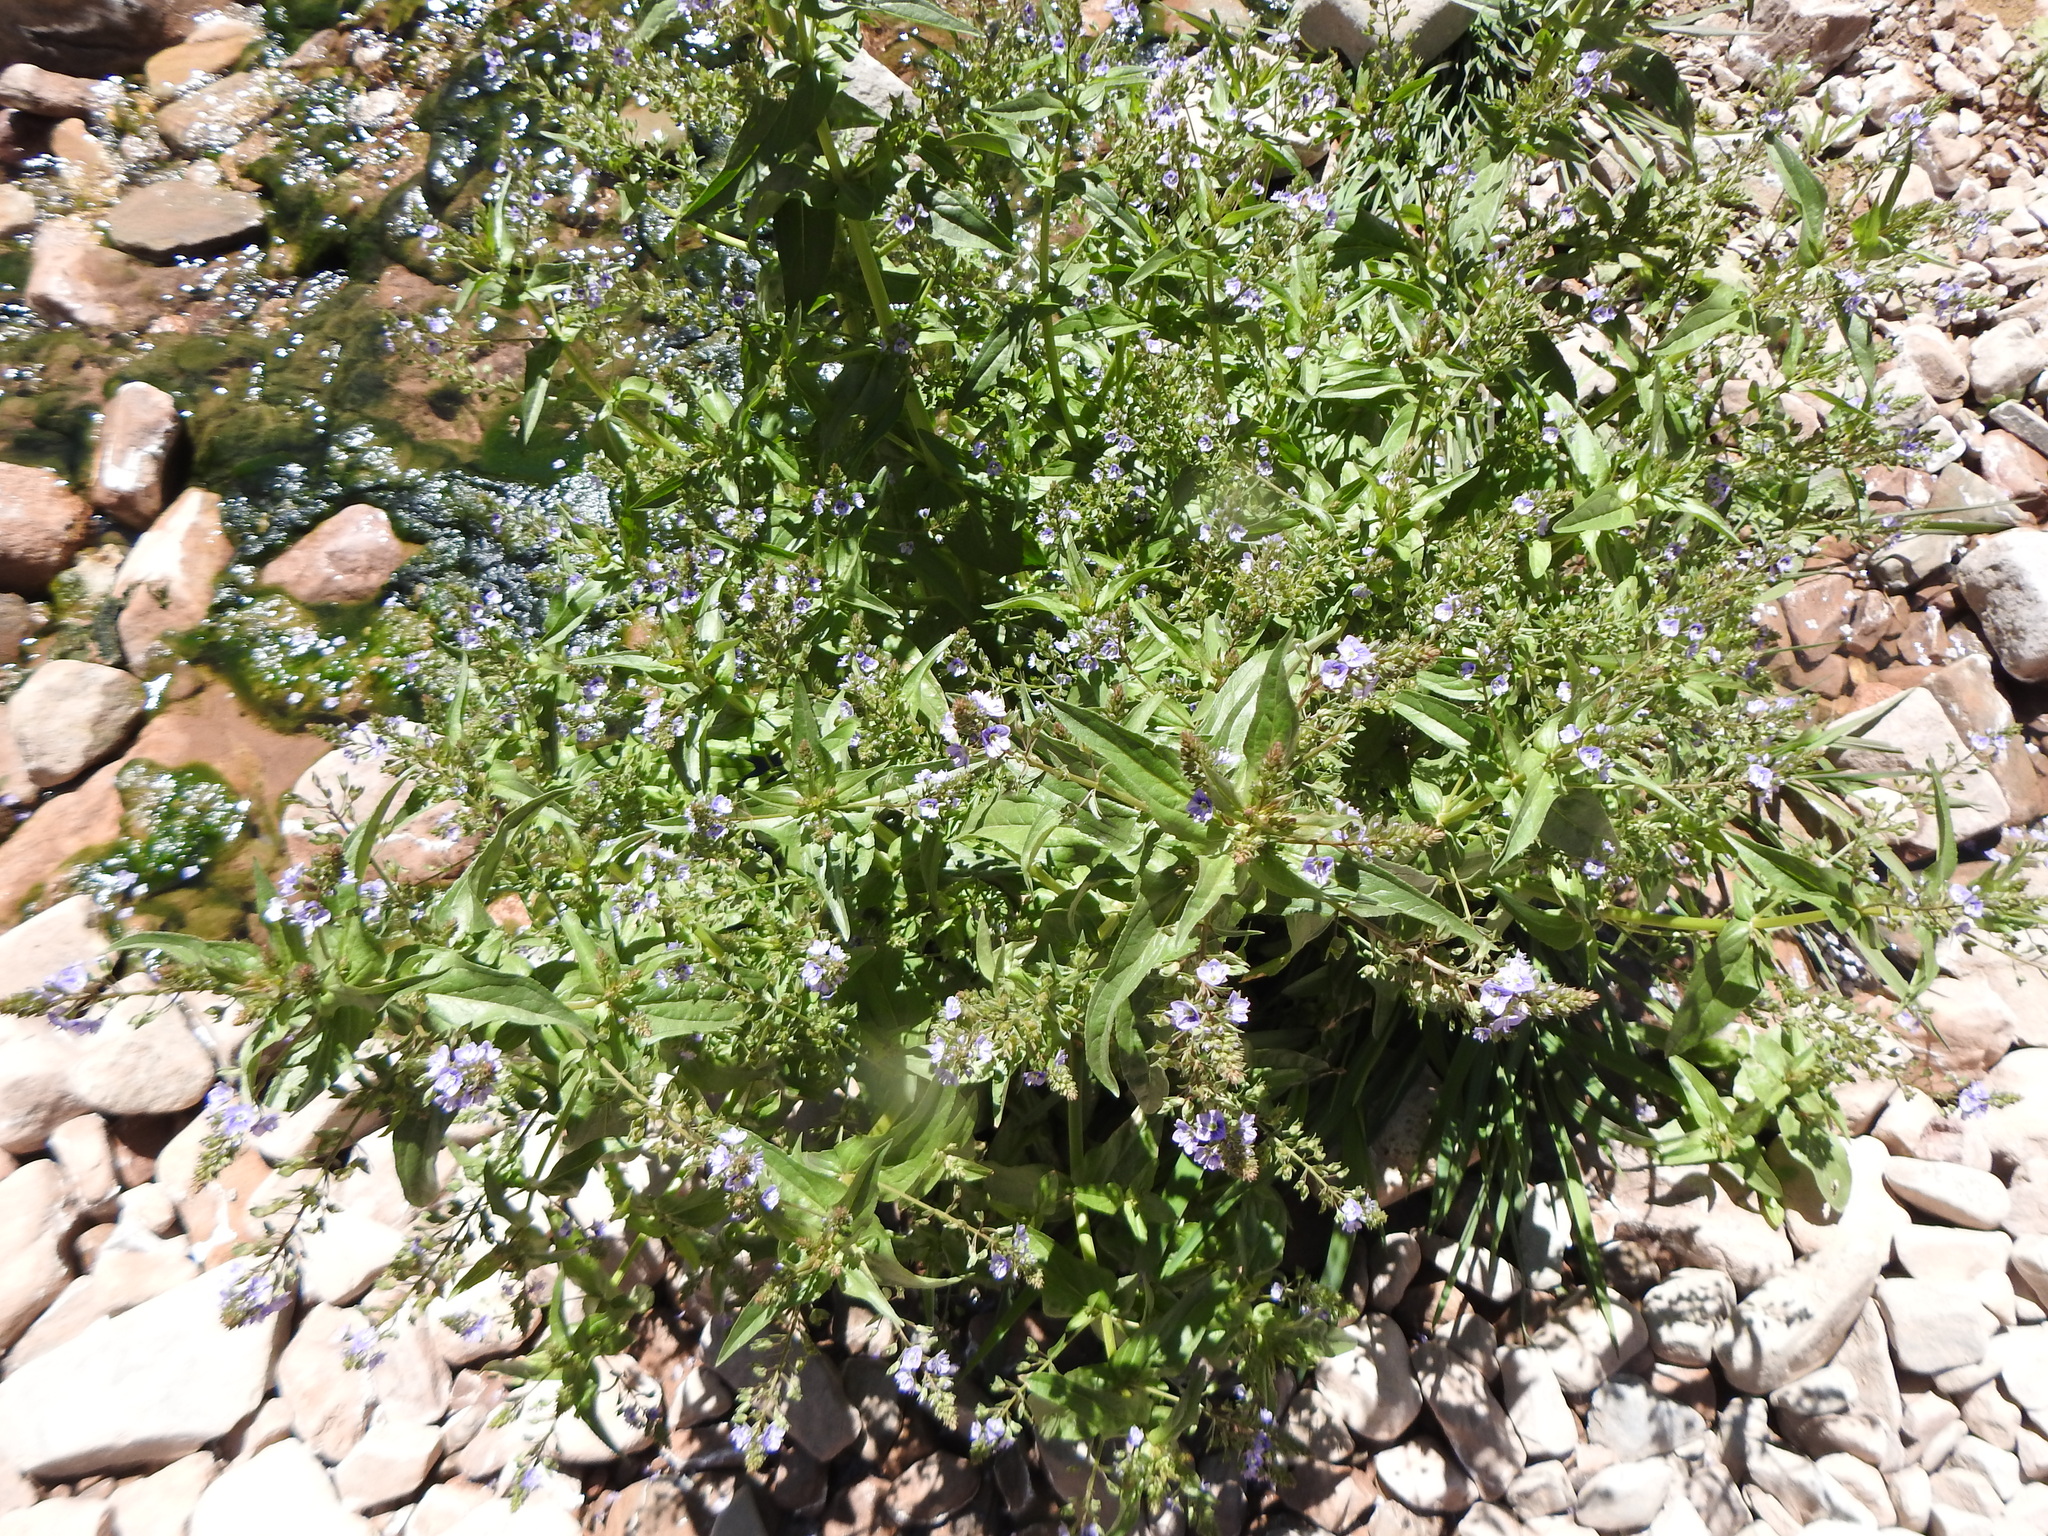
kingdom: Plantae
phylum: Tracheophyta
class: Magnoliopsida
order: Lamiales
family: Plantaginaceae
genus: Veronica
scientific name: Veronica anagallis-aquatica
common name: Water speedwell
